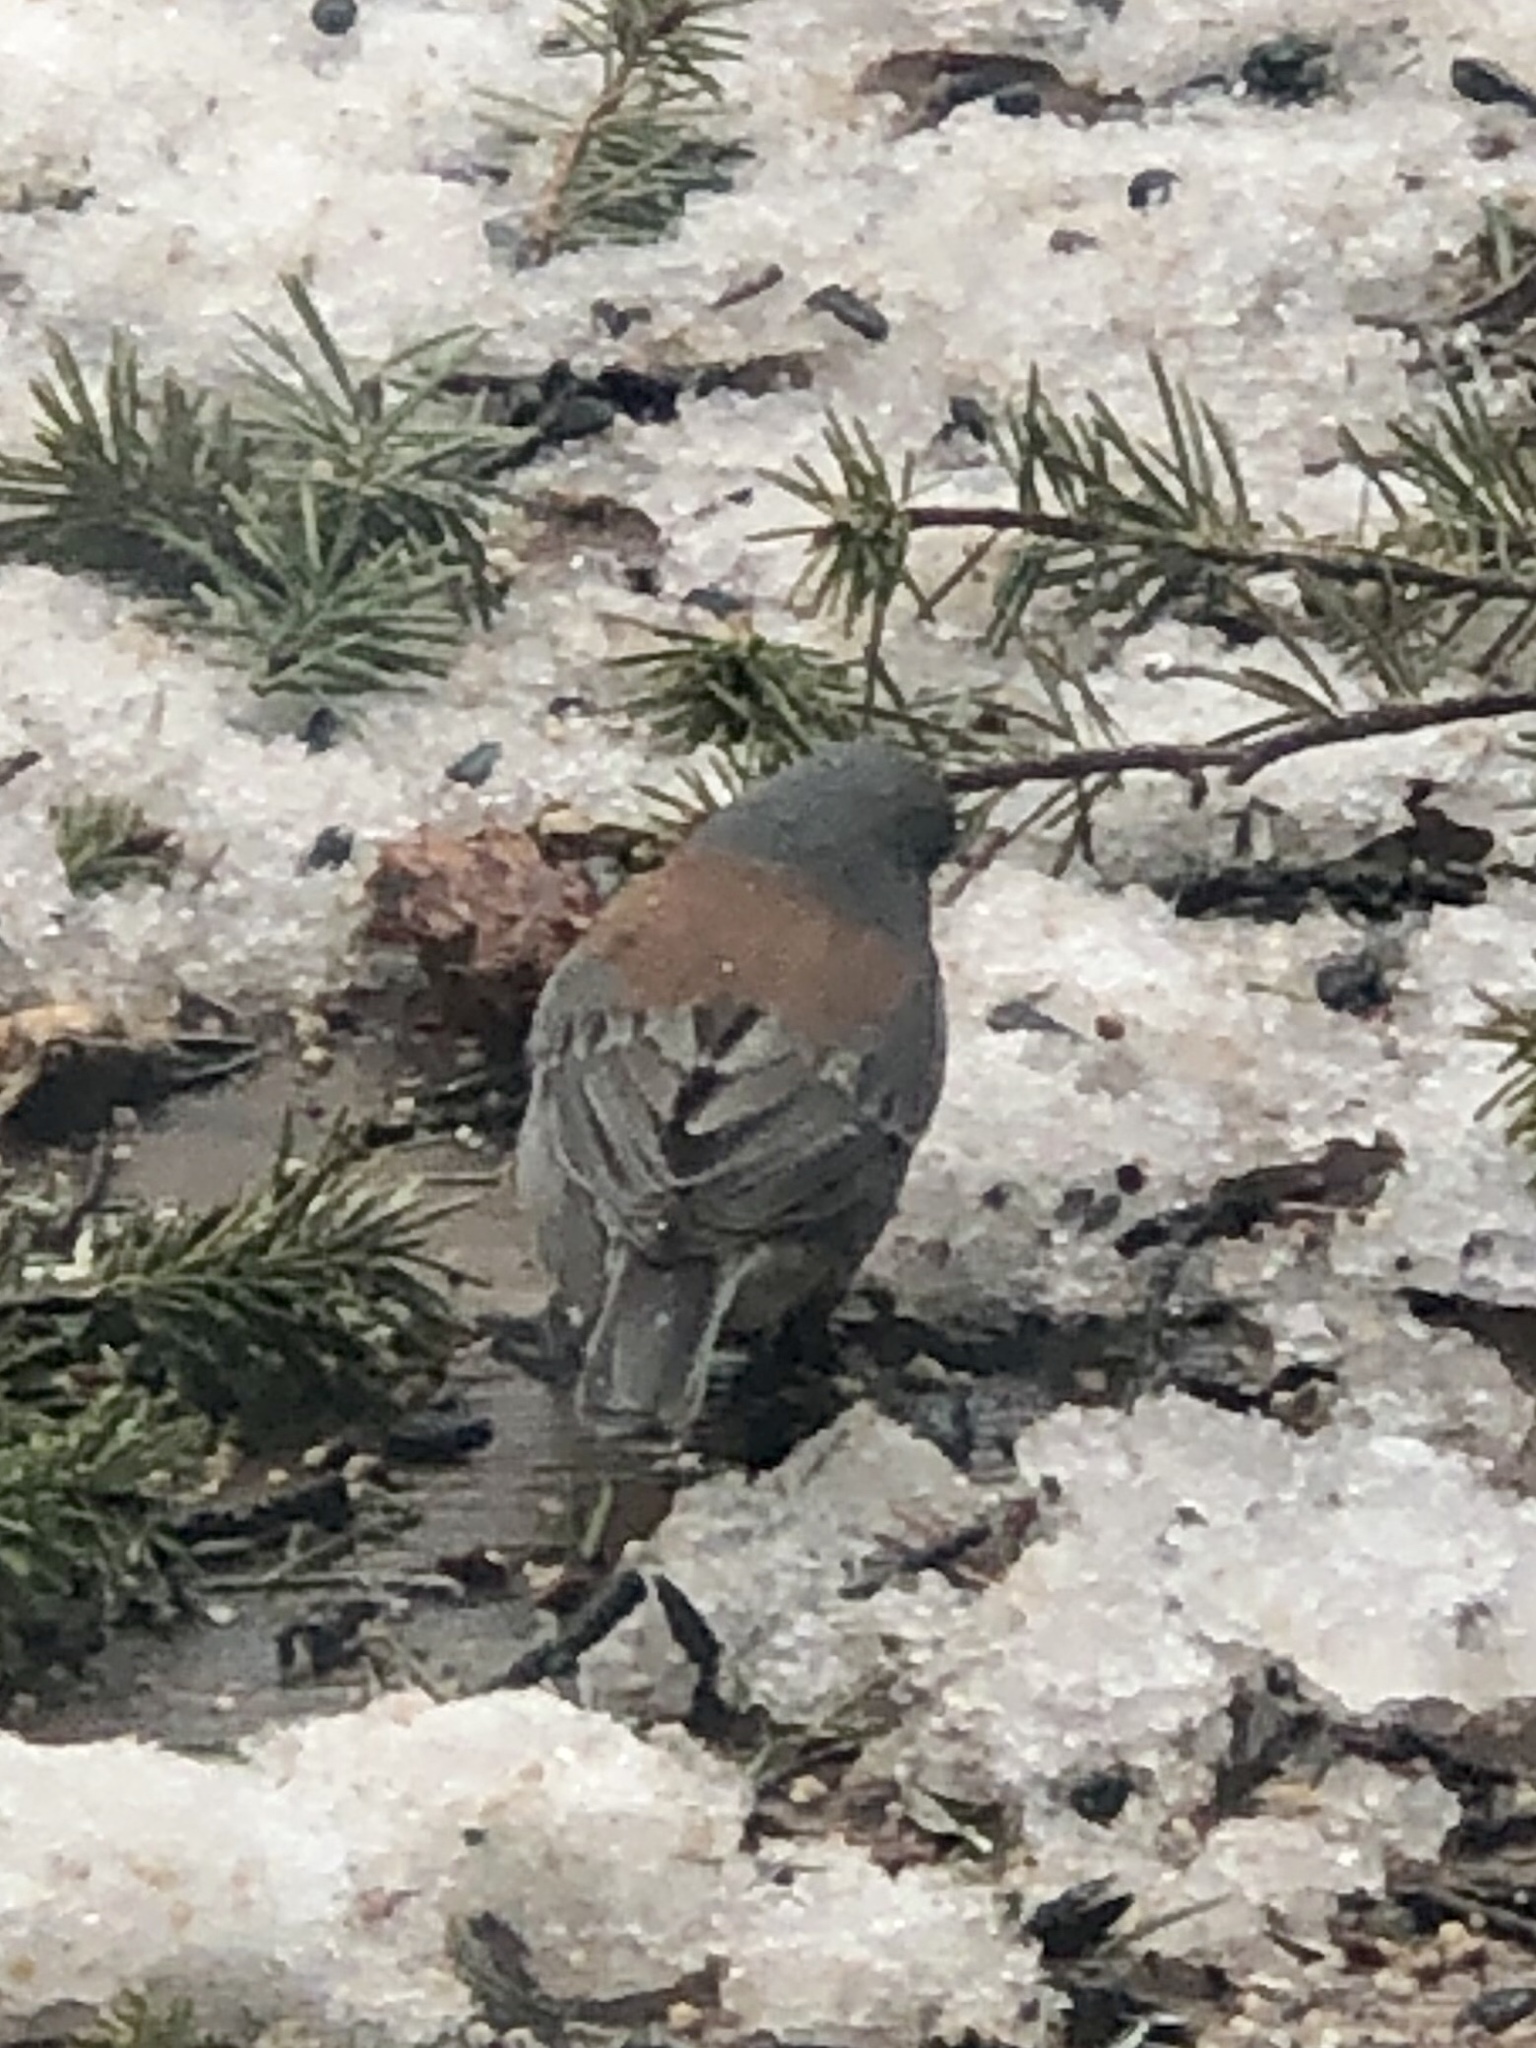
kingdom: Animalia
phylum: Chordata
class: Aves
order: Passeriformes
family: Passerellidae
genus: Junco
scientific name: Junco hyemalis
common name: Dark-eyed junco
